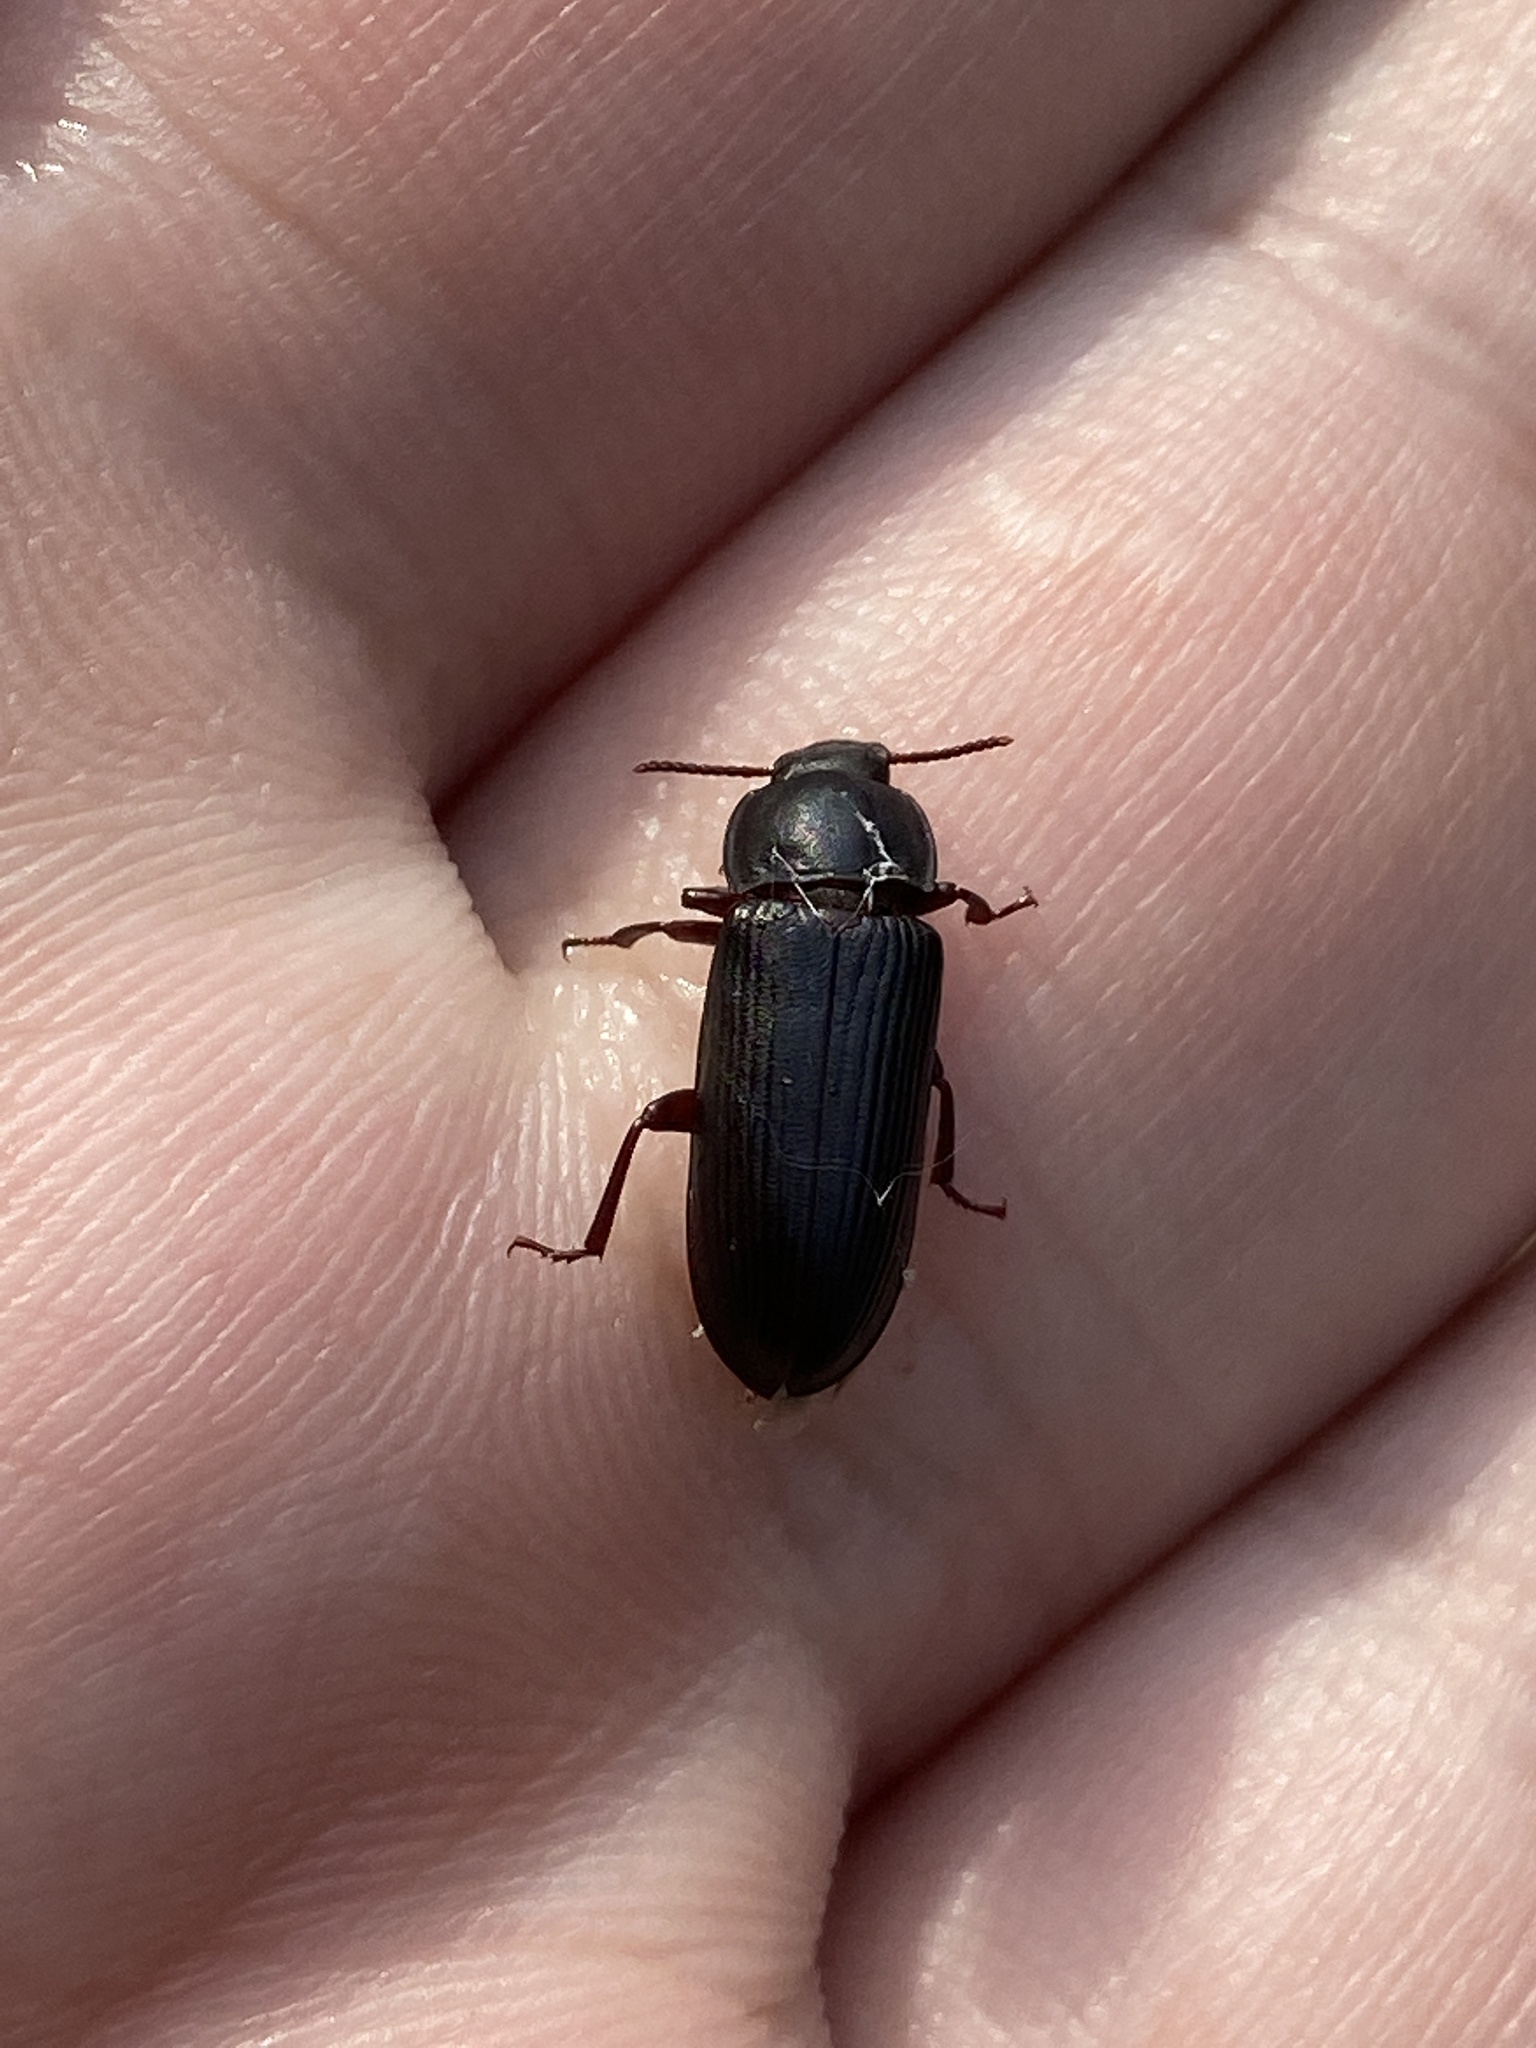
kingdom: Animalia
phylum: Arthropoda
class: Insecta
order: Coleoptera
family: Tenebrionidae
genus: Tenebrio
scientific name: Tenebrio molitor
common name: Hardback beetle
